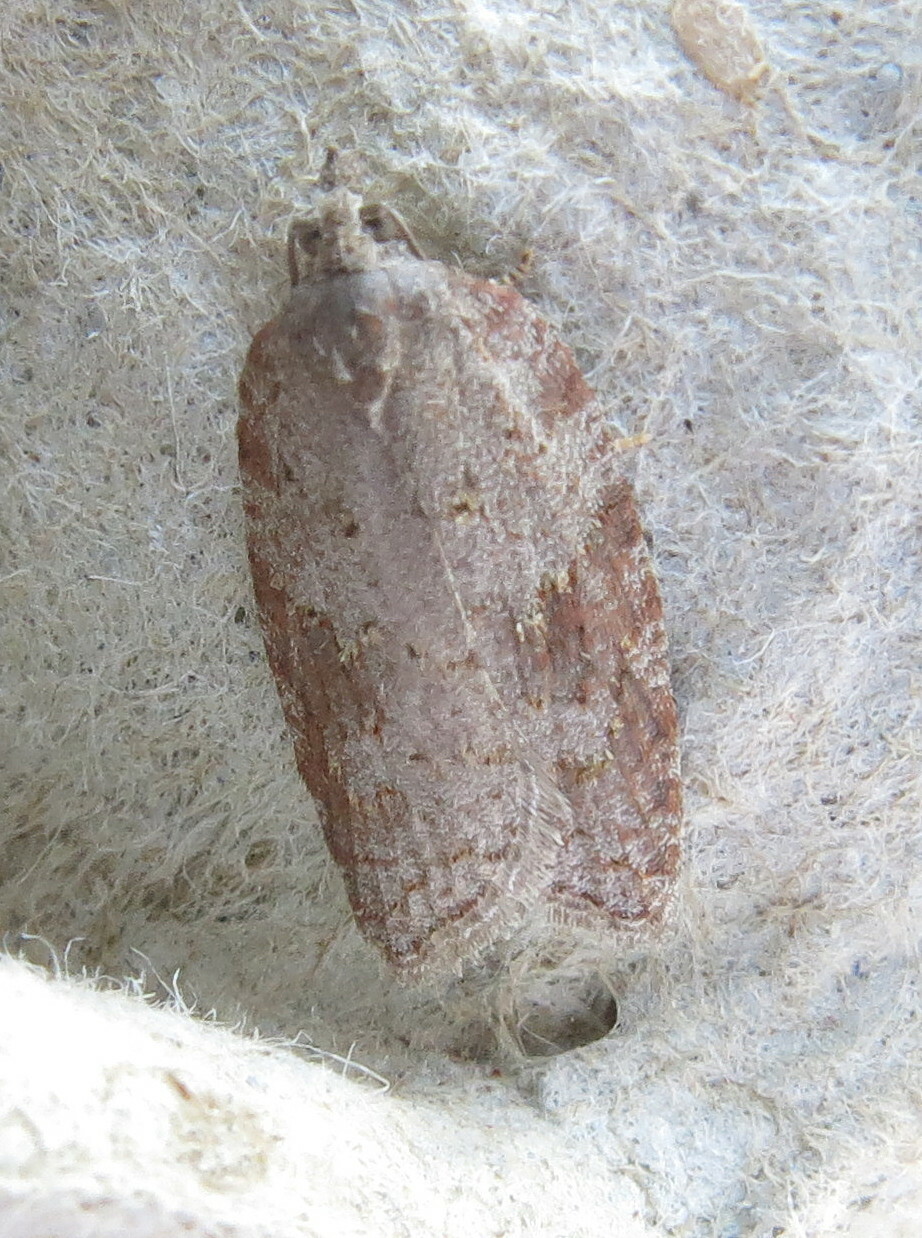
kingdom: Animalia
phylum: Arthropoda
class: Insecta
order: Lepidoptera
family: Tortricidae
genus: Acleris
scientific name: Acleris sparsana
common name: Ashy button
